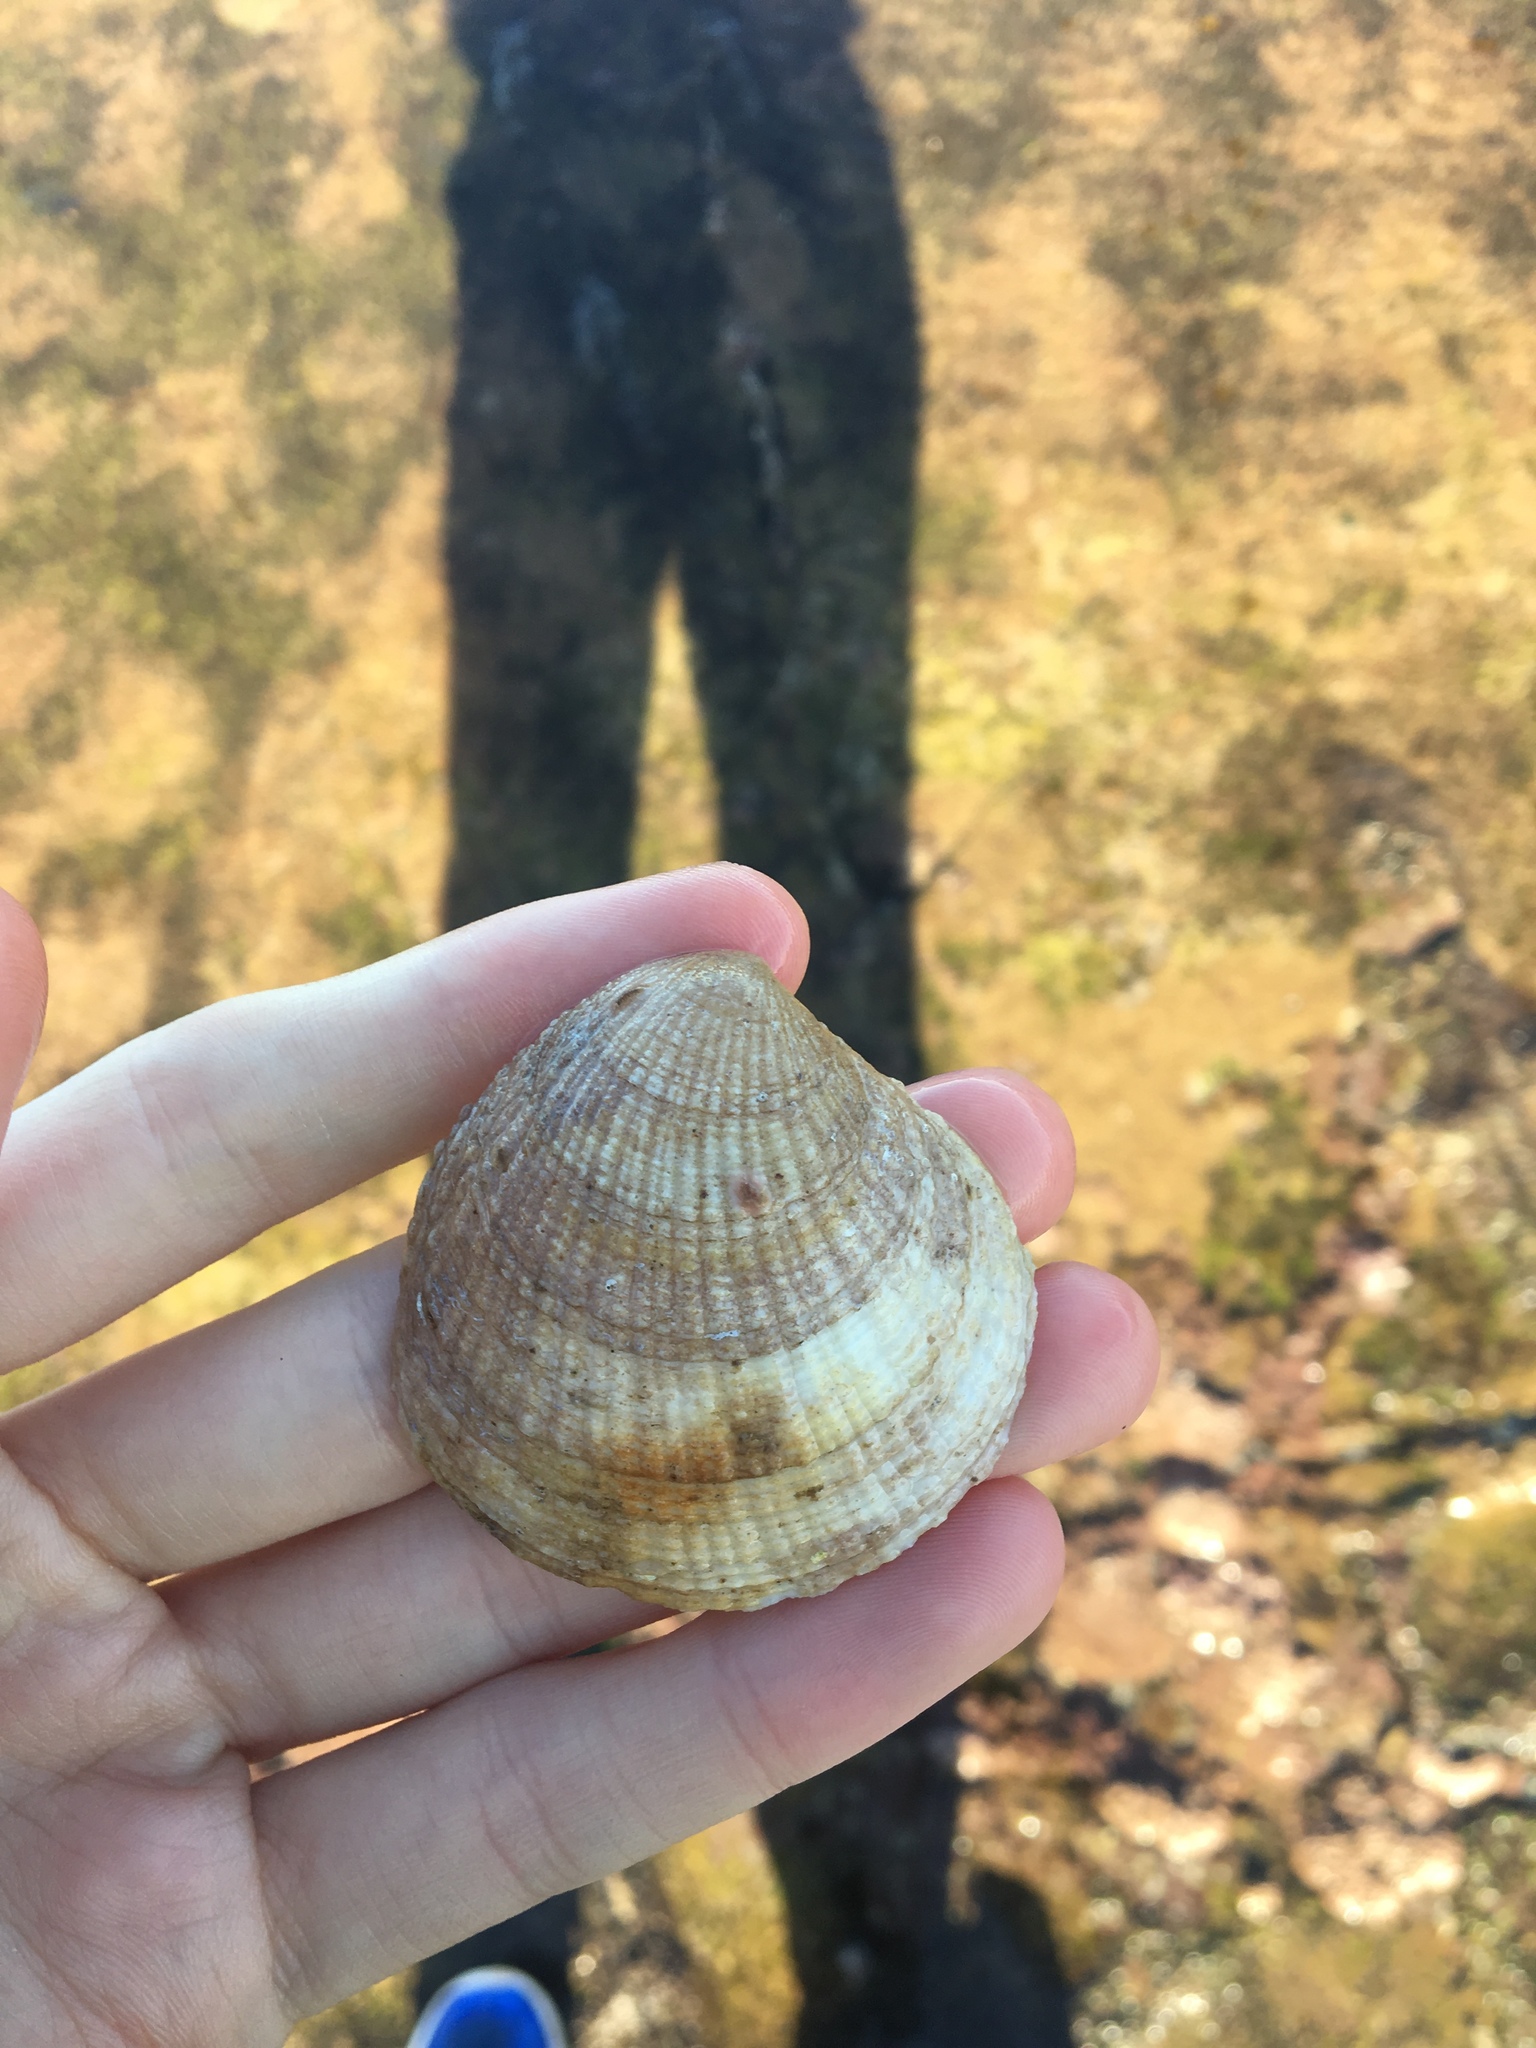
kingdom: Animalia
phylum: Mollusca
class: Bivalvia
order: Lucinida
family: Lucinidae
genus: Codakia
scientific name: Codakia rugifera
